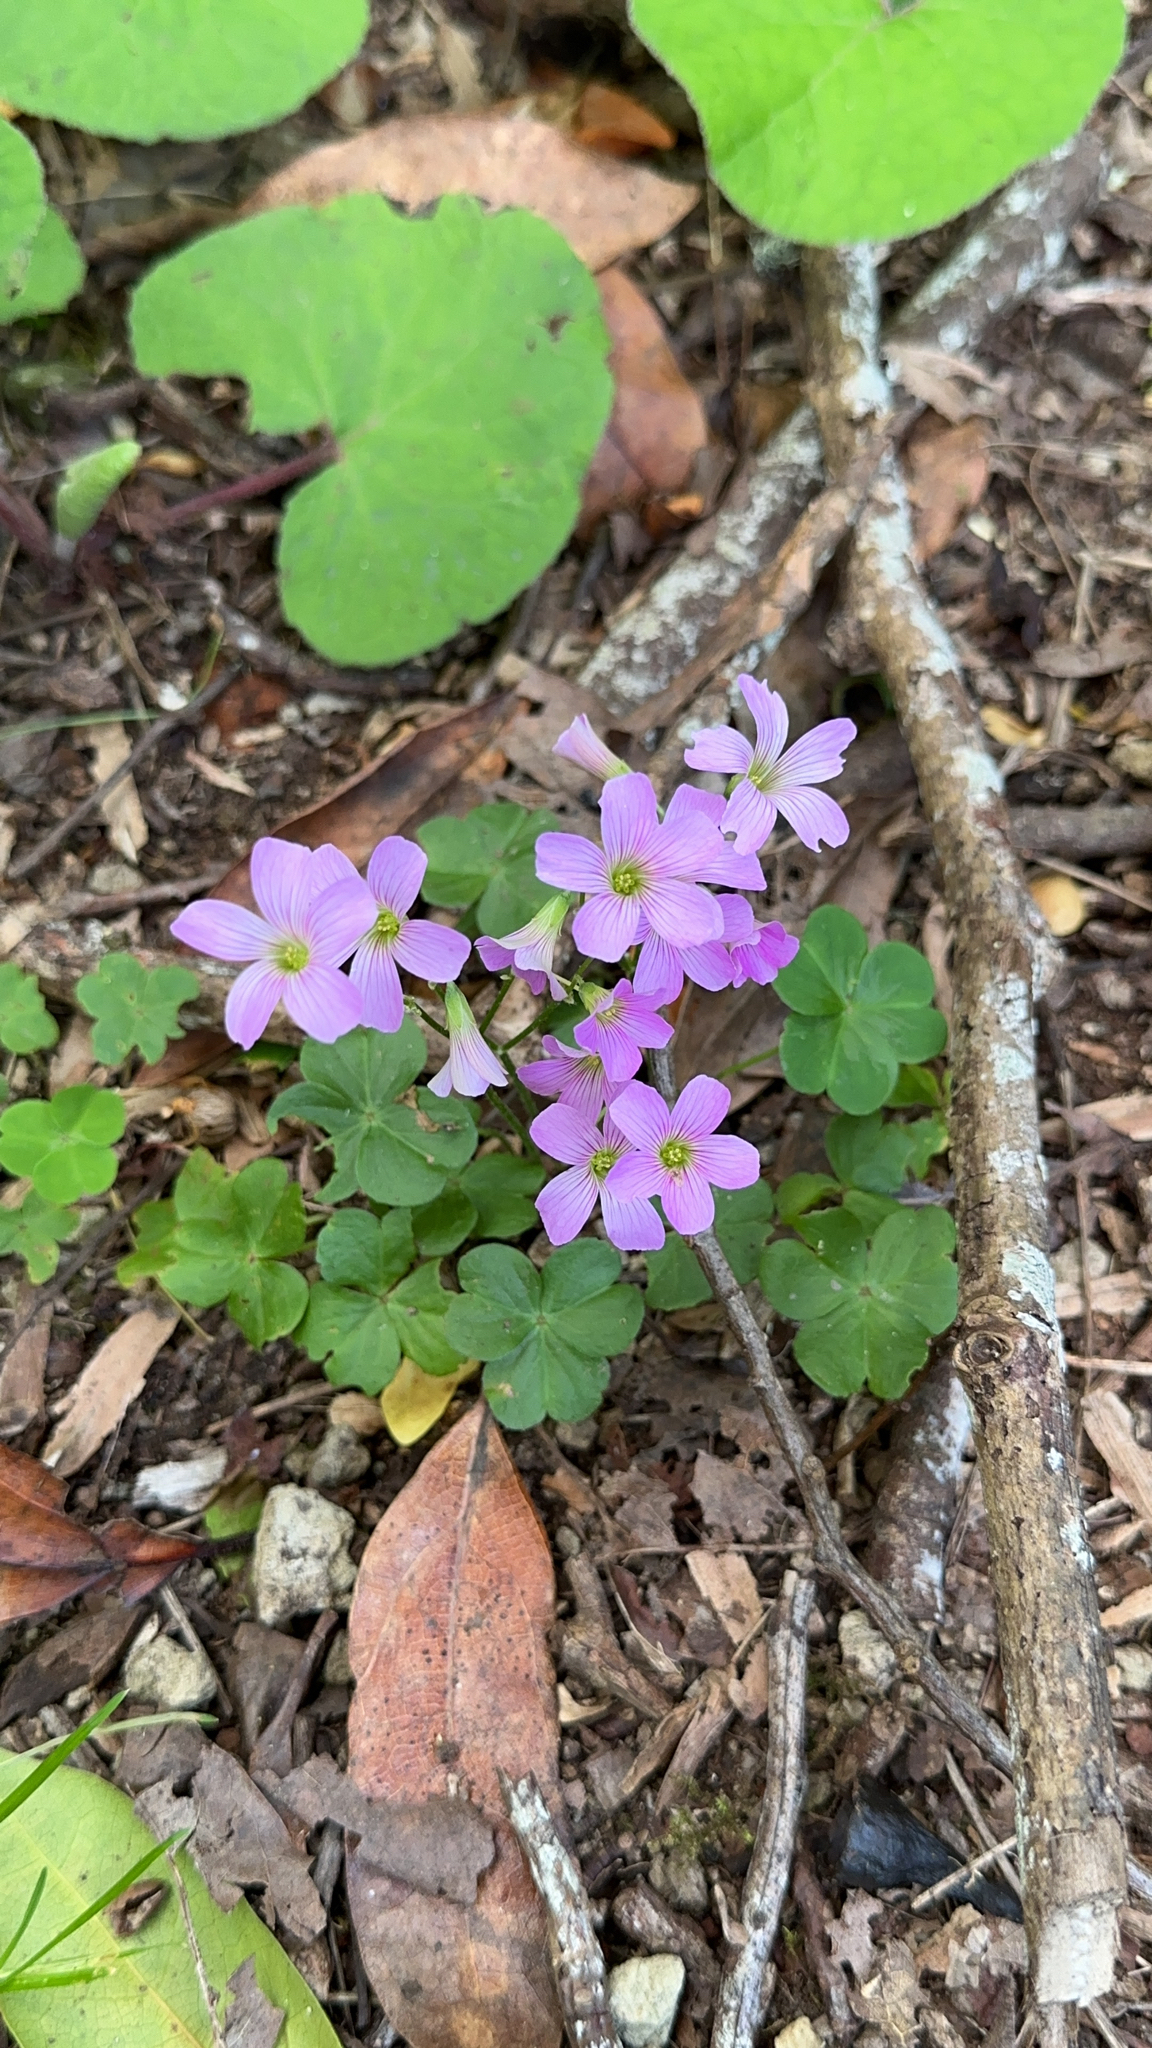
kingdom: Plantae
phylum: Tracheophyta
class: Magnoliopsida
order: Oxalidales
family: Oxalidaceae
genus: Oxalis
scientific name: Oxalis debilis
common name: Large-flowered pink-sorrel
